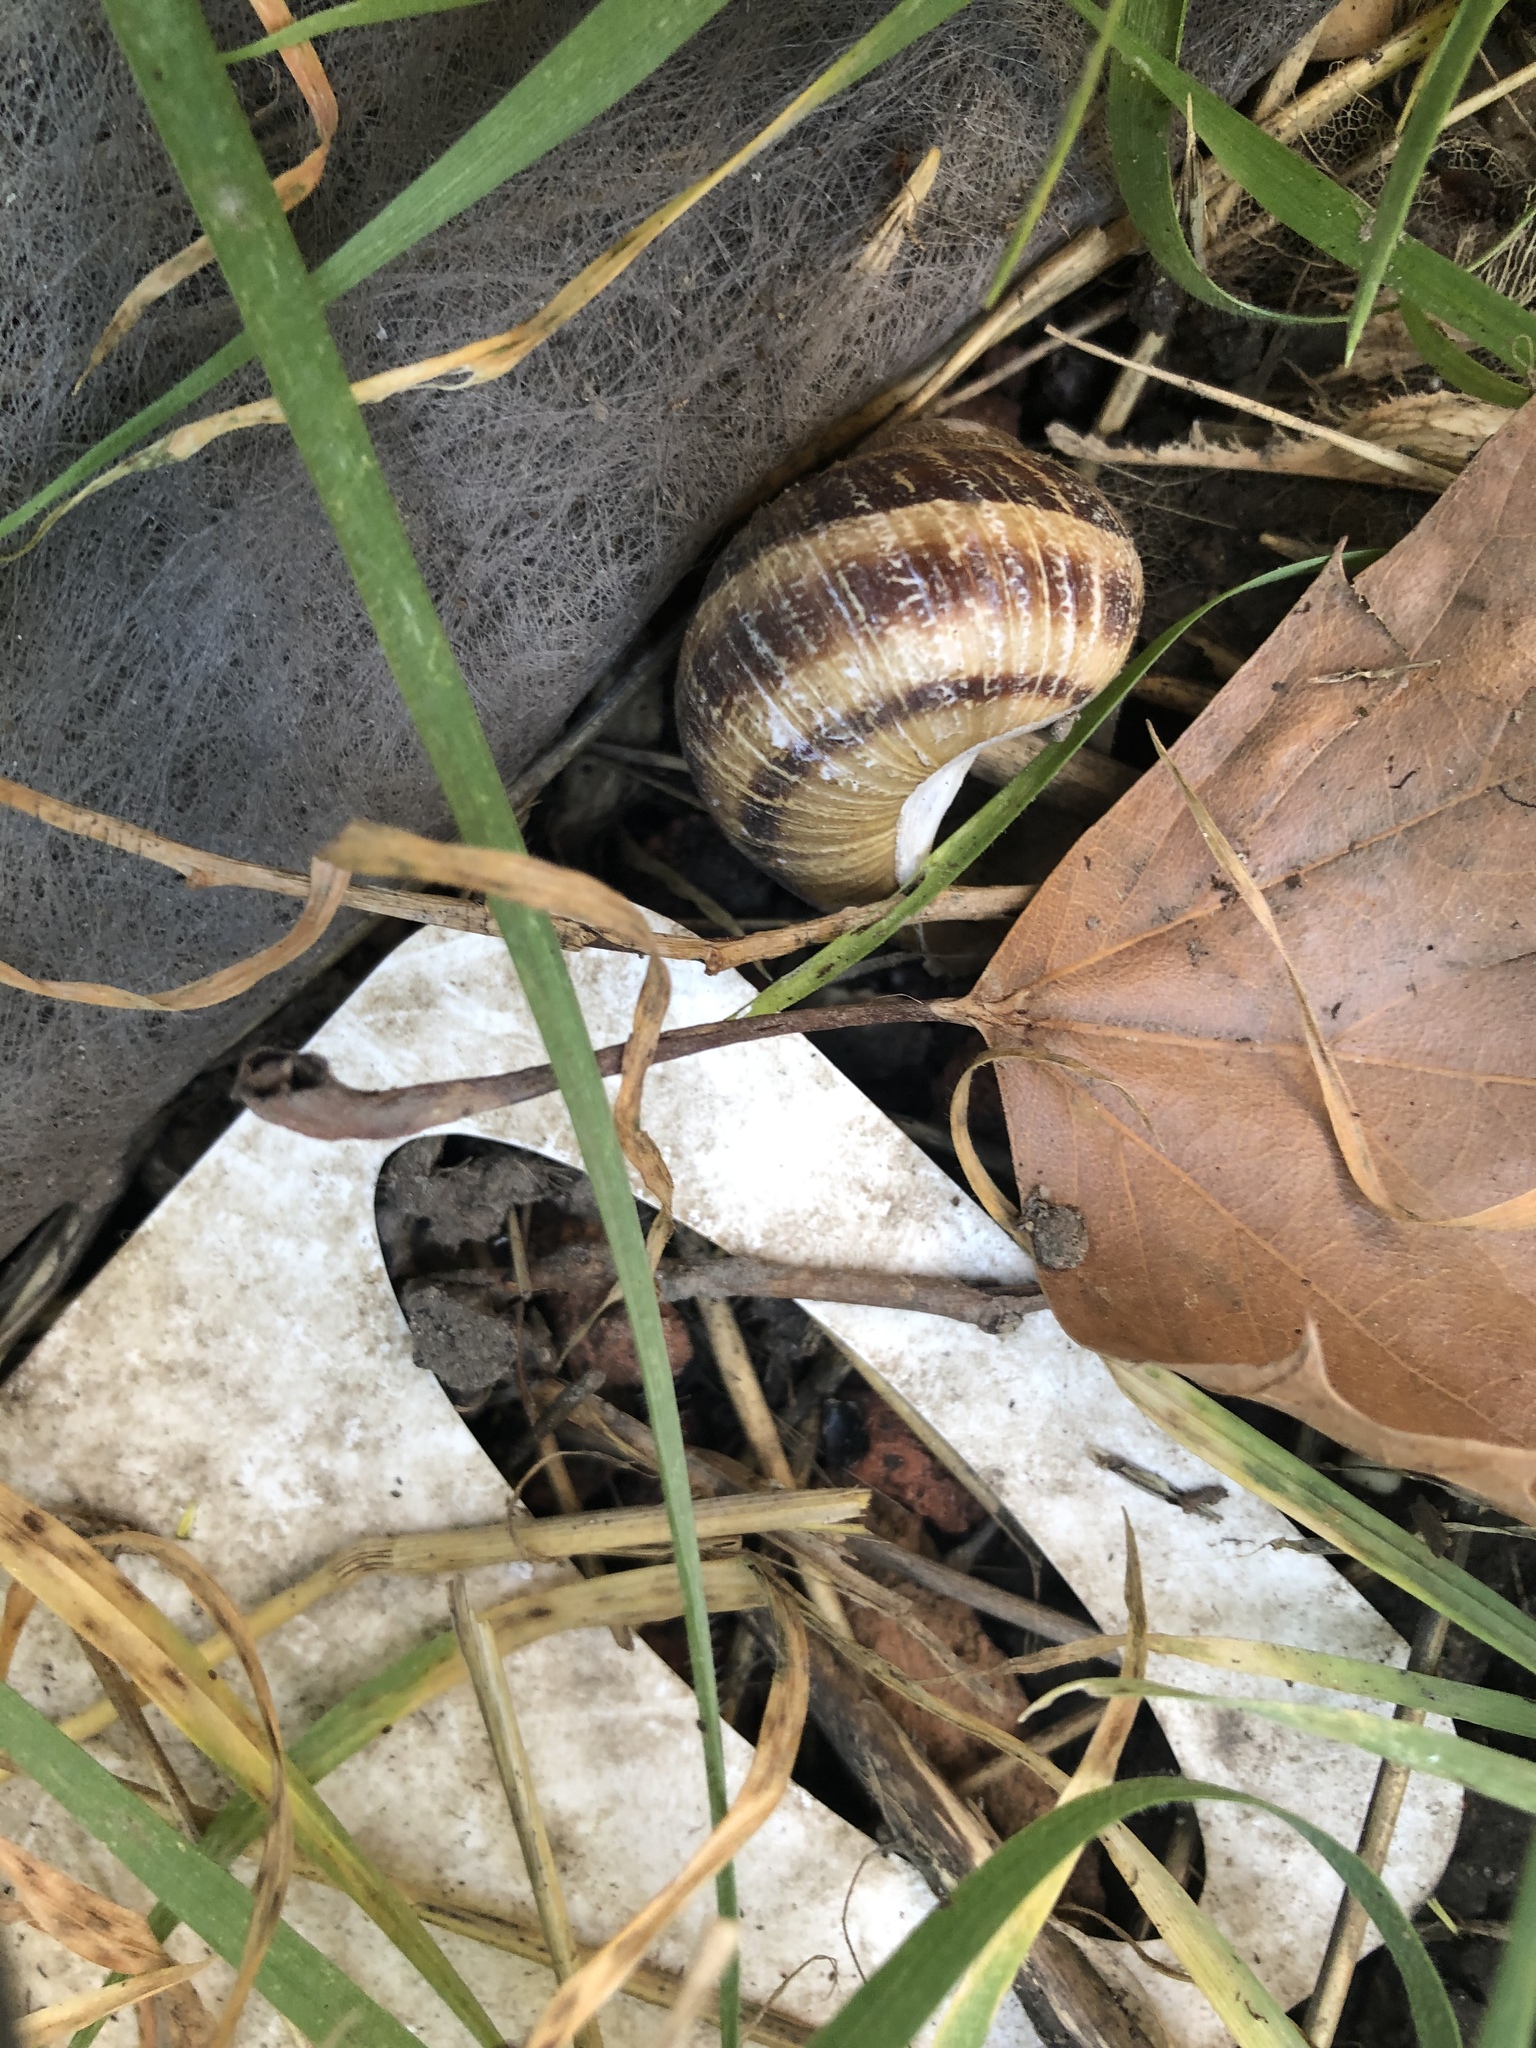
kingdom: Animalia
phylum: Mollusca
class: Gastropoda
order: Stylommatophora
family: Helicidae
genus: Cornu
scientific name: Cornu aspersum
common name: Brown garden snail
